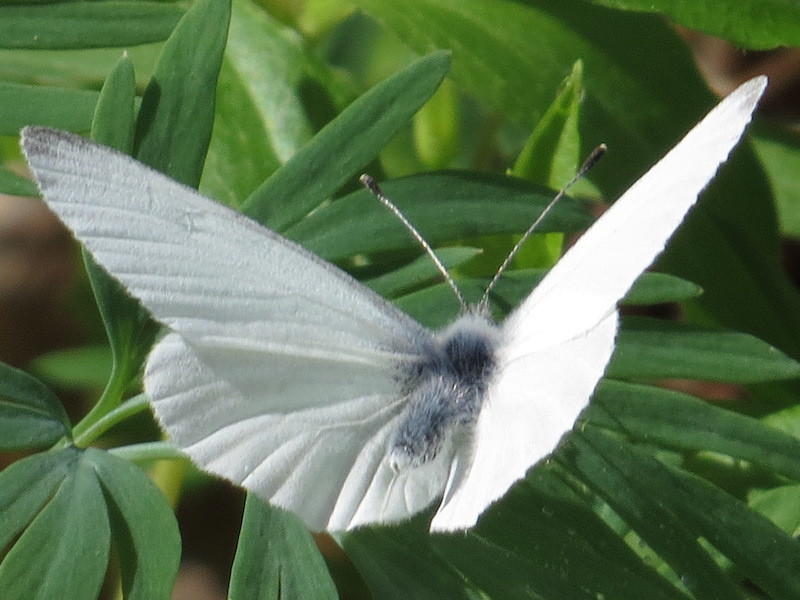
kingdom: Animalia
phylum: Arthropoda
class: Insecta
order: Lepidoptera
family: Pieridae
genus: Pieris
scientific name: Pieris virginiensis
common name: West virginia white
